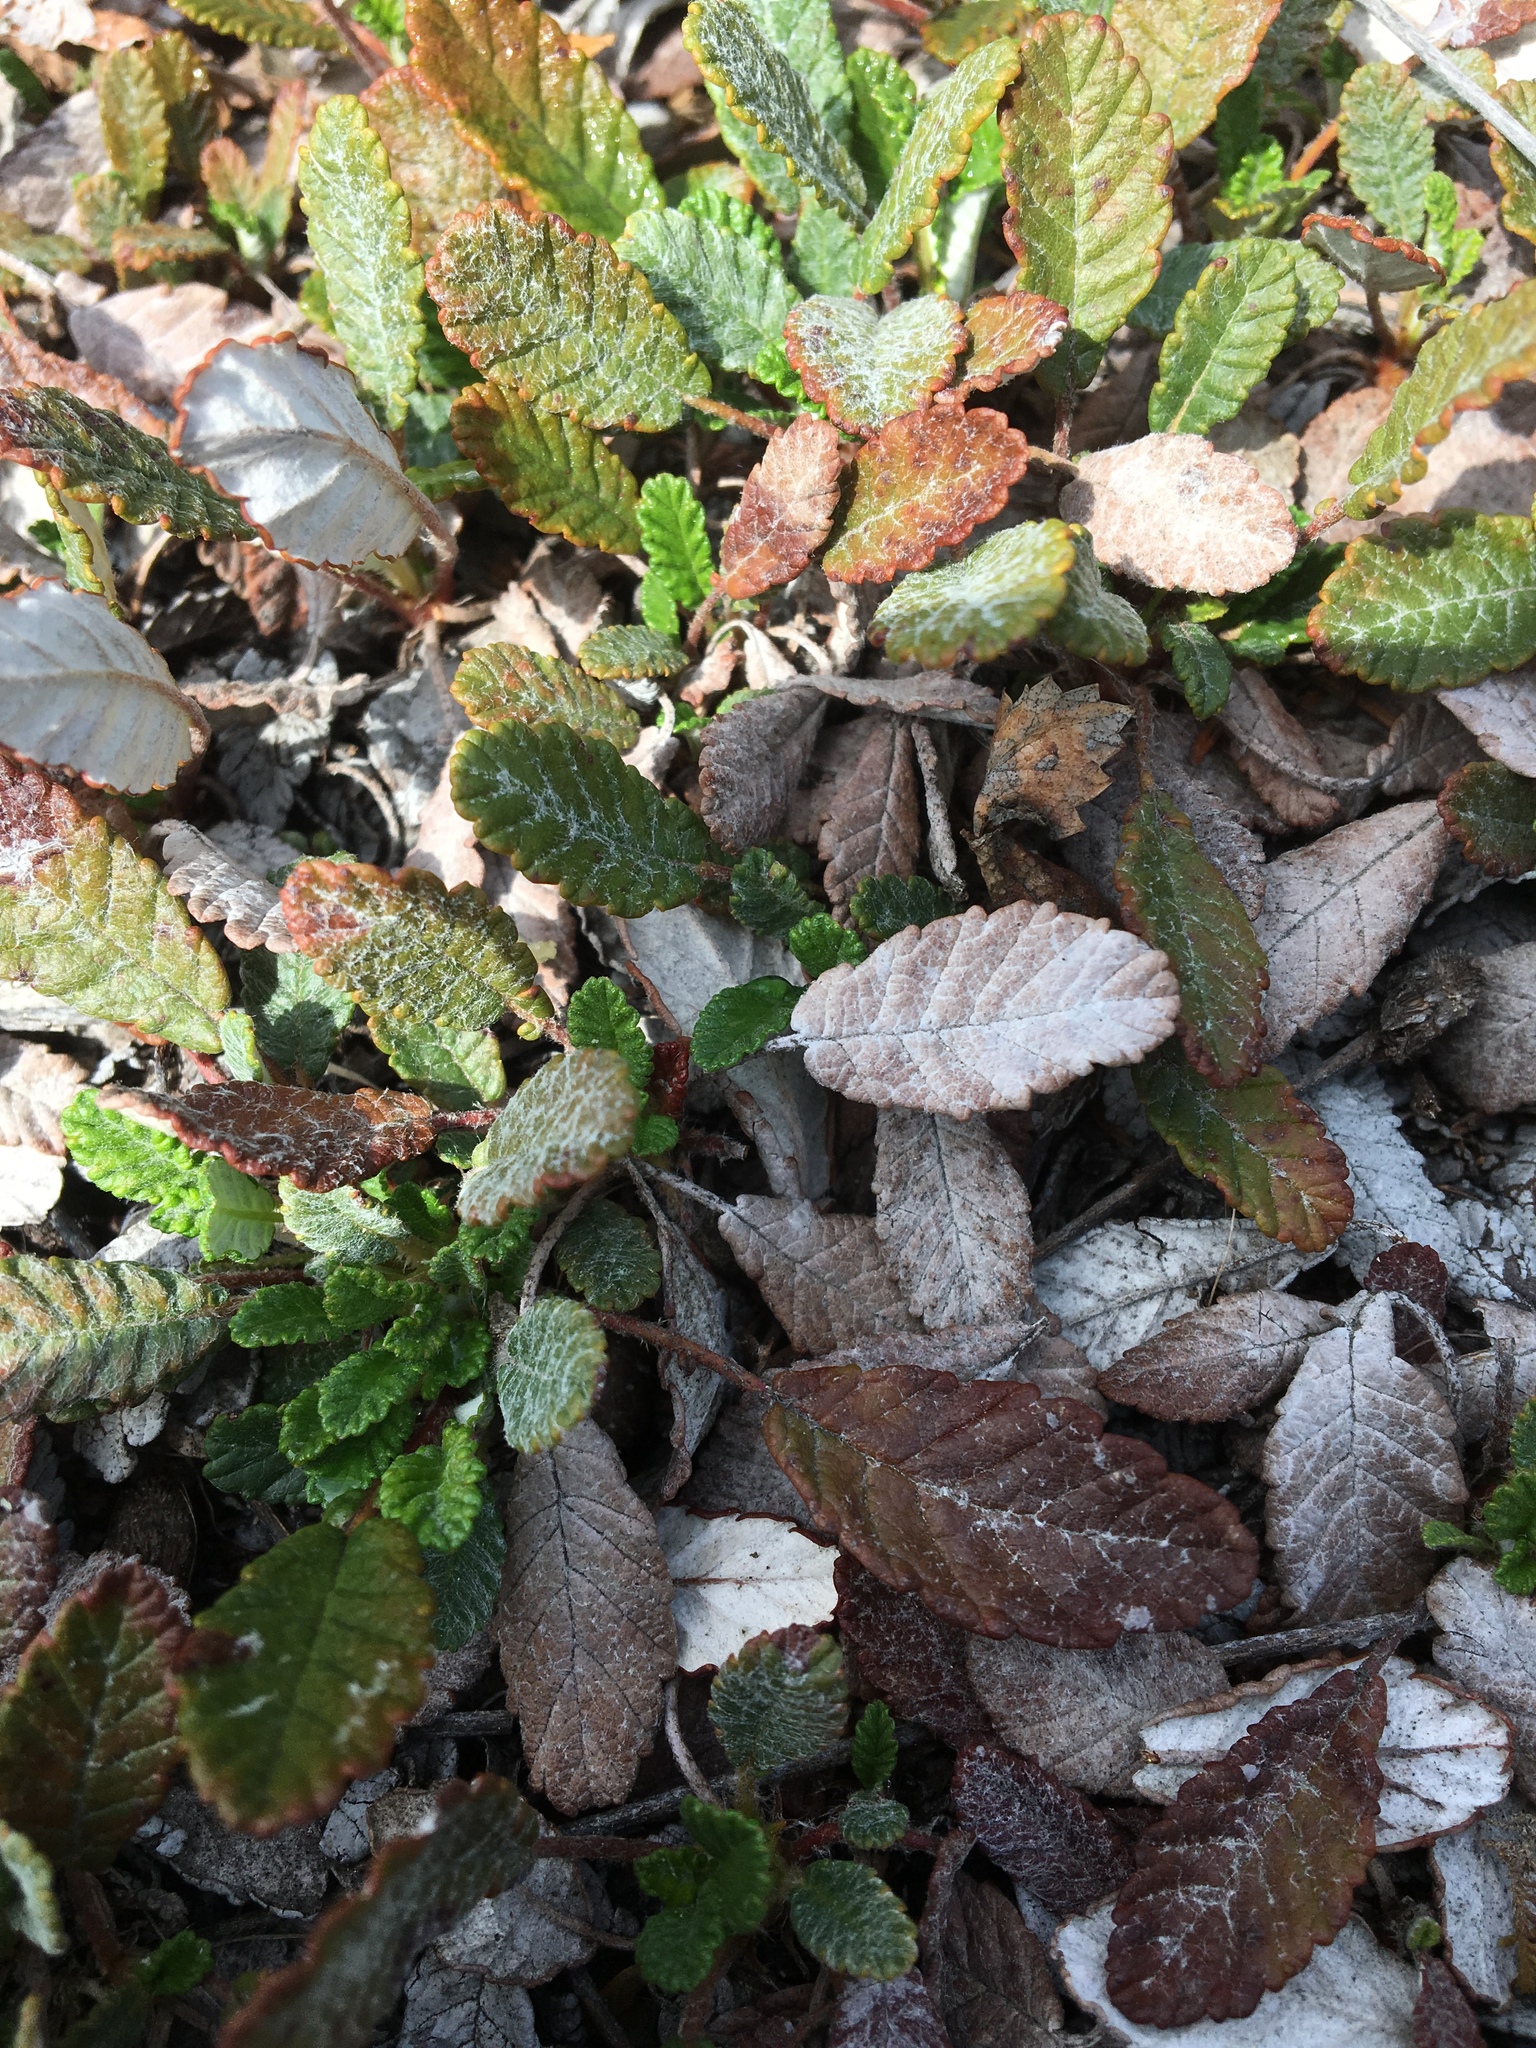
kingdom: Plantae
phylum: Tracheophyta
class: Magnoliopsida
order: Rosales
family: Rosaceae
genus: Dryas
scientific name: Dryas drummondii
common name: Drummond's dryad
